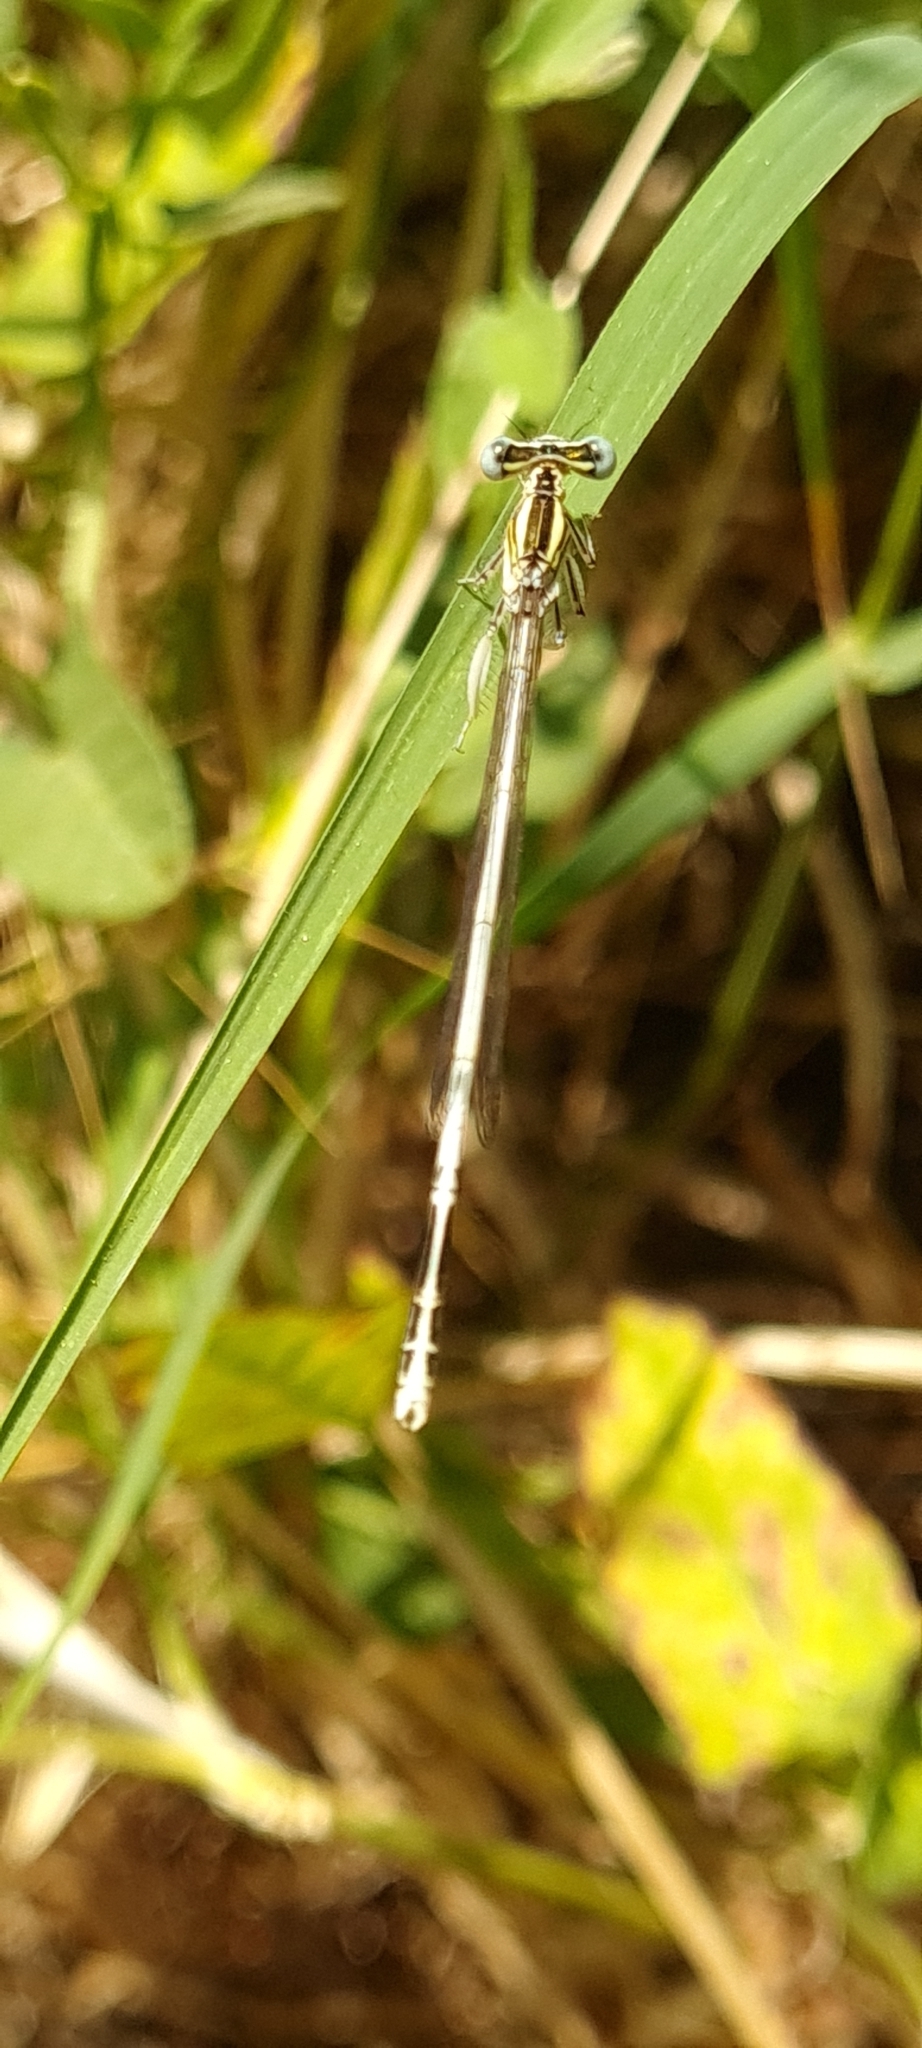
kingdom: Animalia
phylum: Arthropoda
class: Insecta
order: Odonata
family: Platycnemididae
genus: Platycnemis
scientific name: Platycnemis latipes
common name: White featherleg
